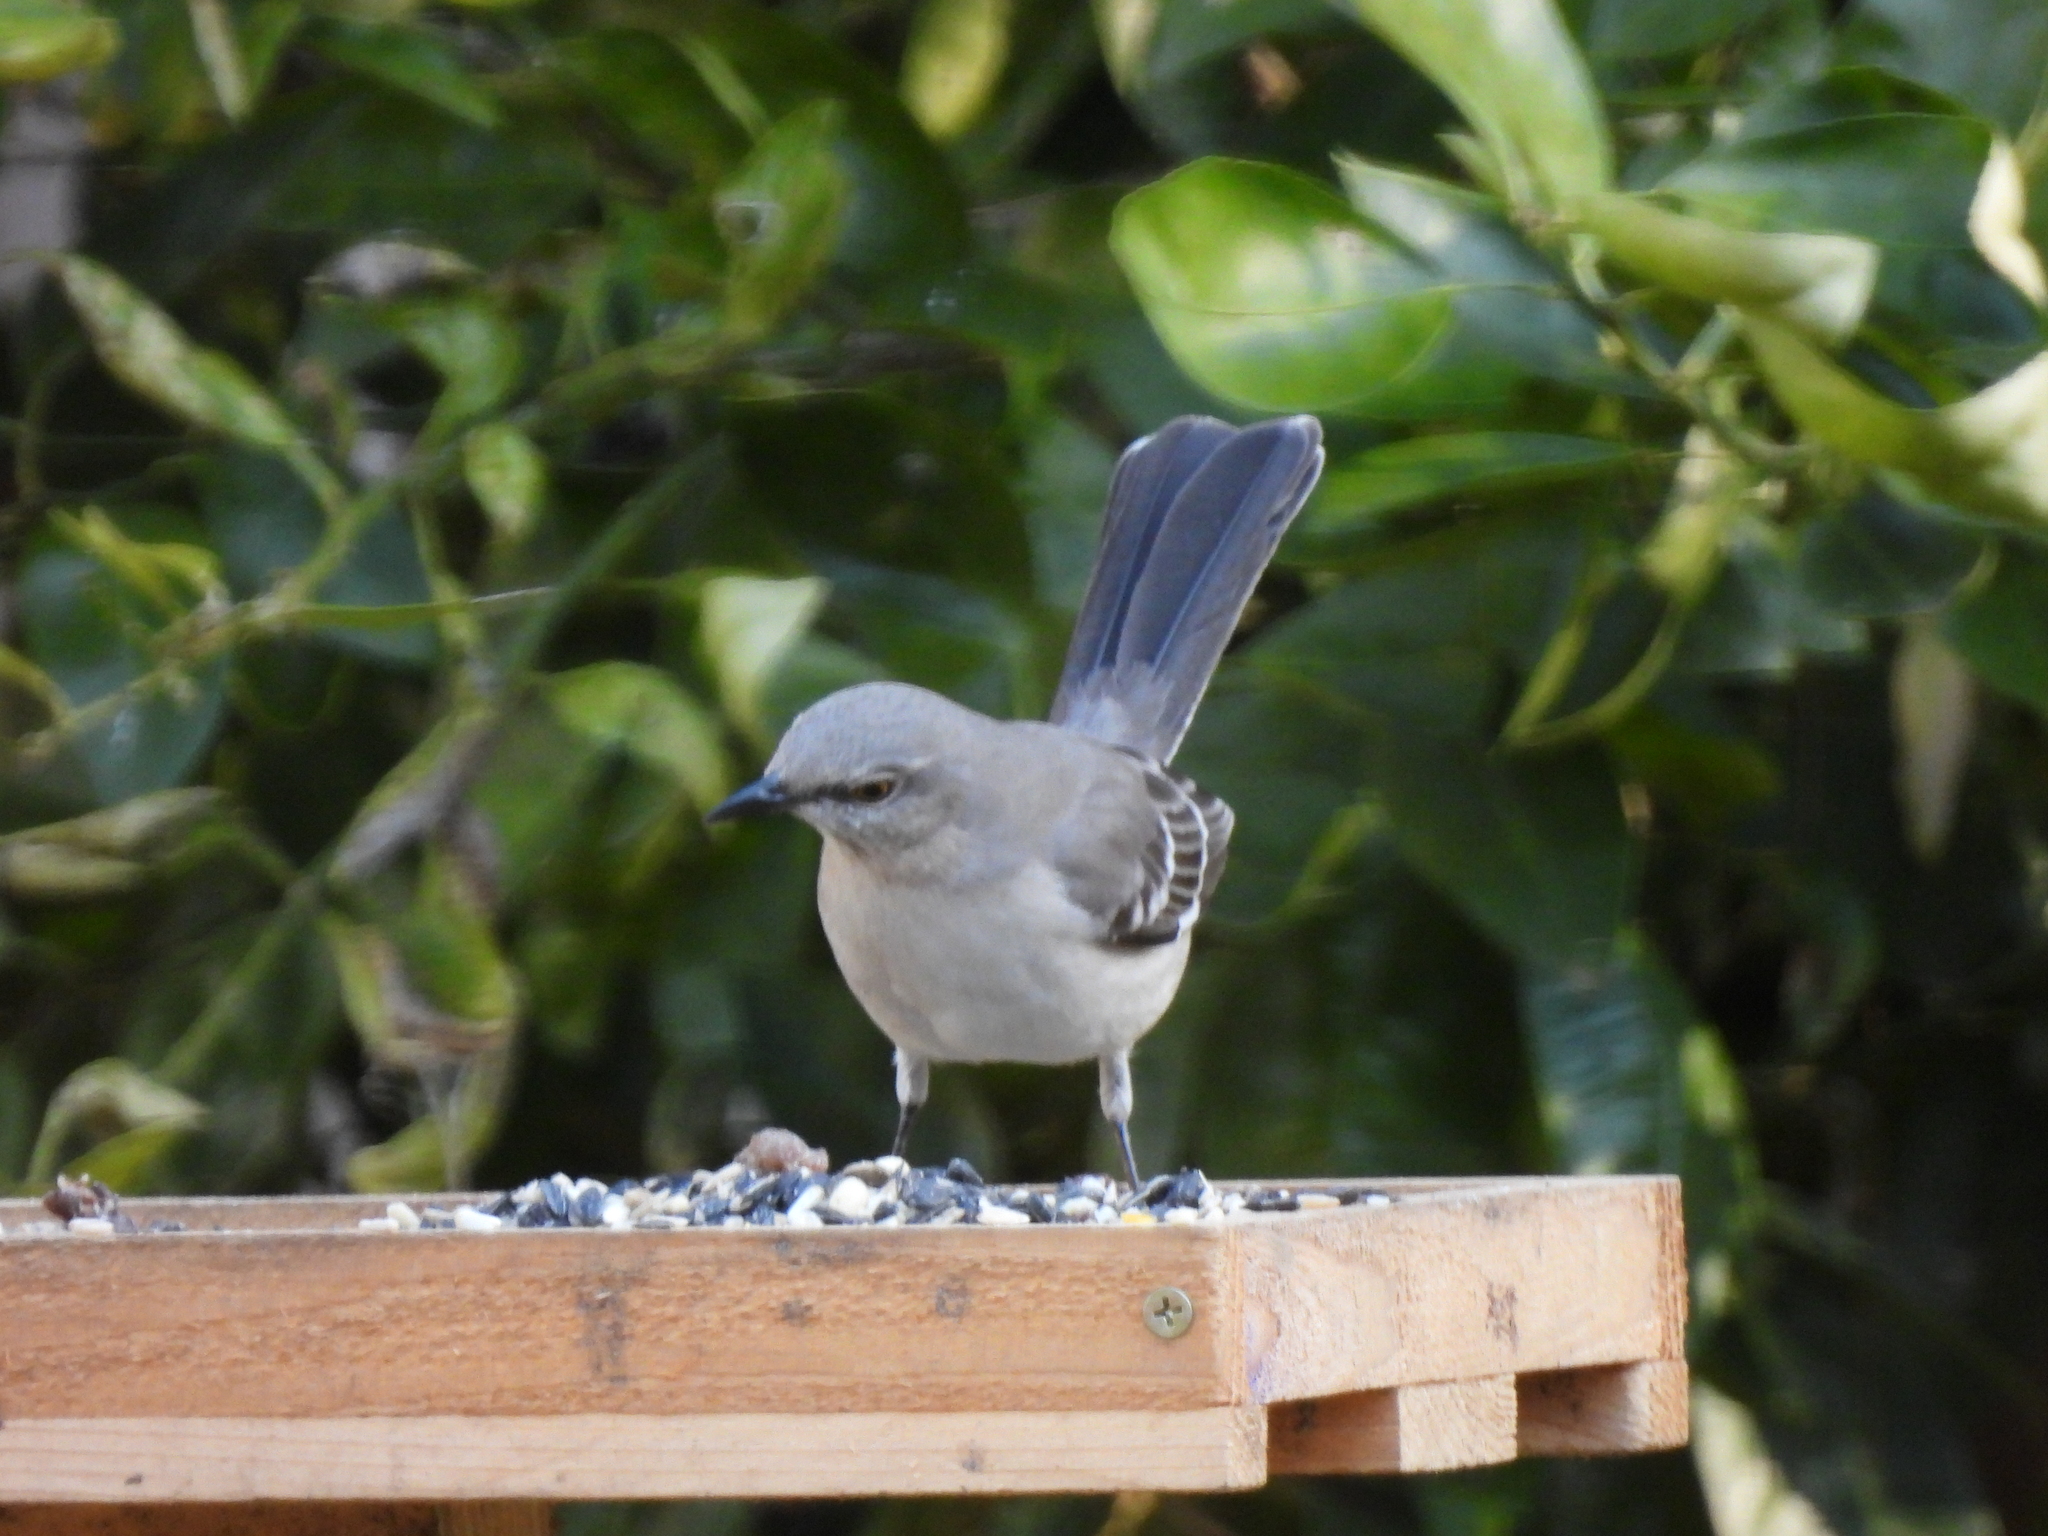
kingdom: Animalia
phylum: Chordata
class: Aves
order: Passeriformes
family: Mimidae
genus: Mimus
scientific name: Mimus polyglottos
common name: Northern mockingbird
